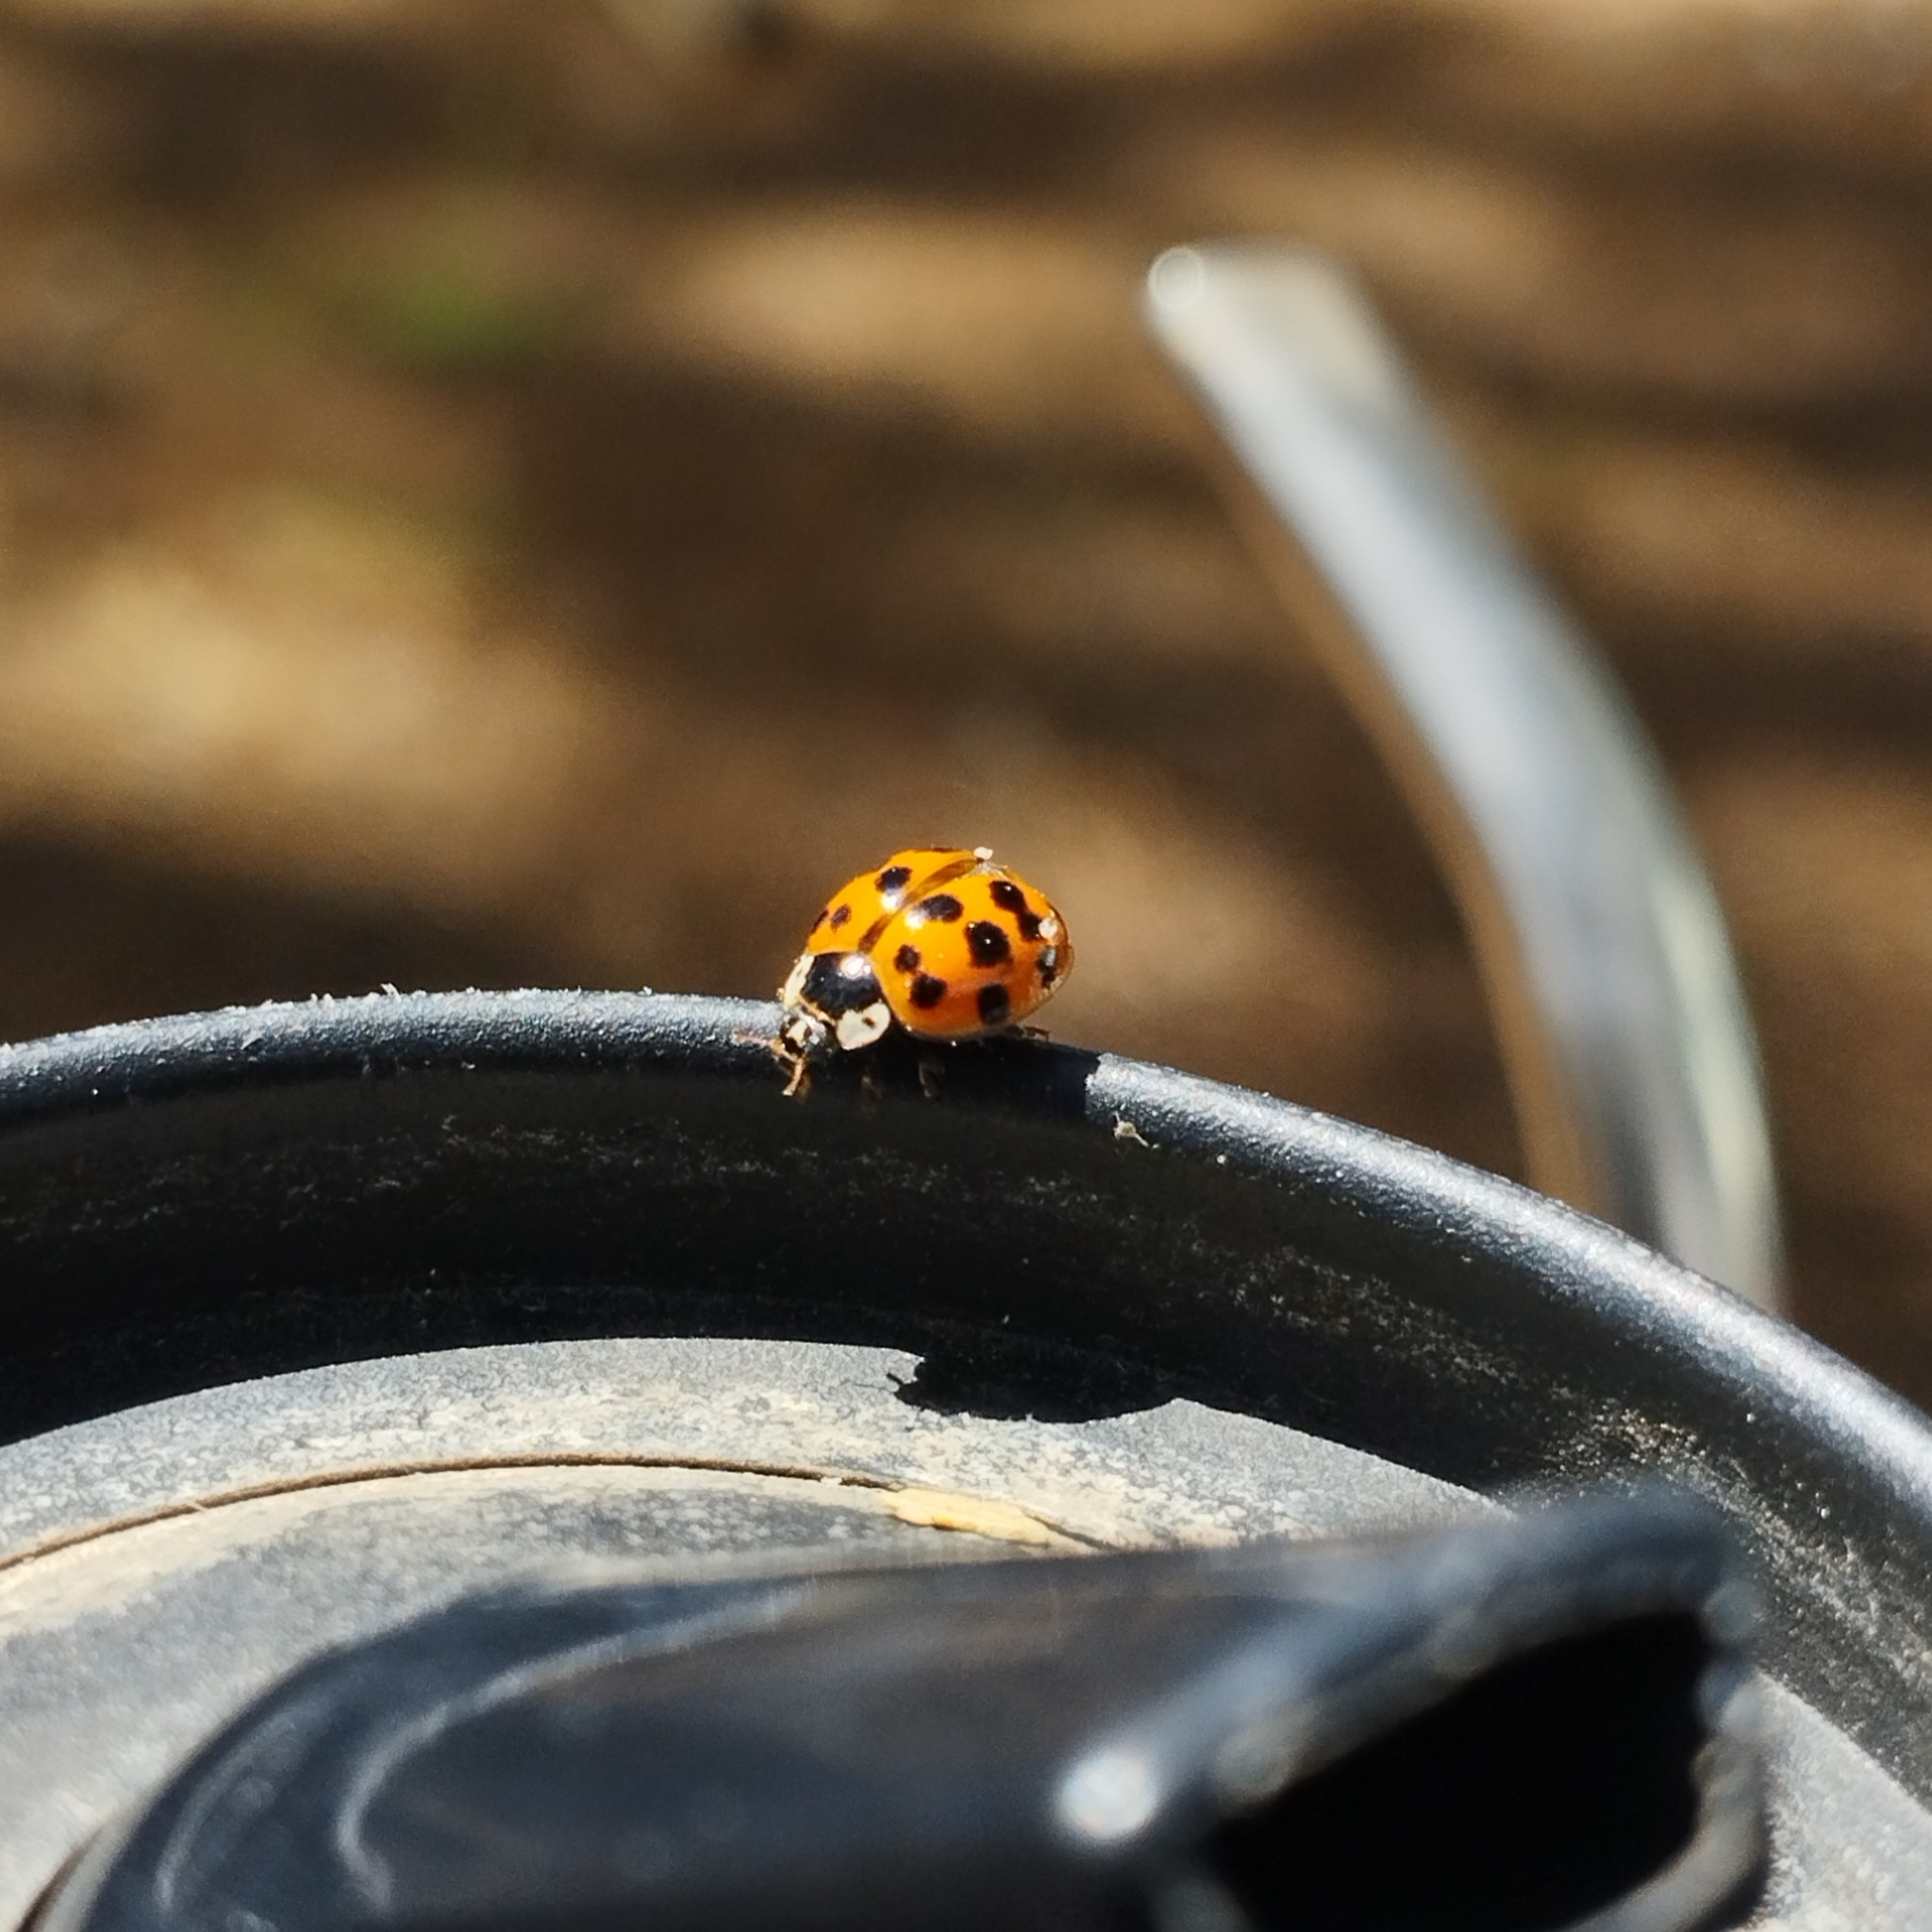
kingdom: Animalia
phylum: Arthropoda
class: Insecta
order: Coleoptera
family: Coccinellidae
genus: Harmonia
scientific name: Harmonia axyridis
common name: Harlequin ladybird
